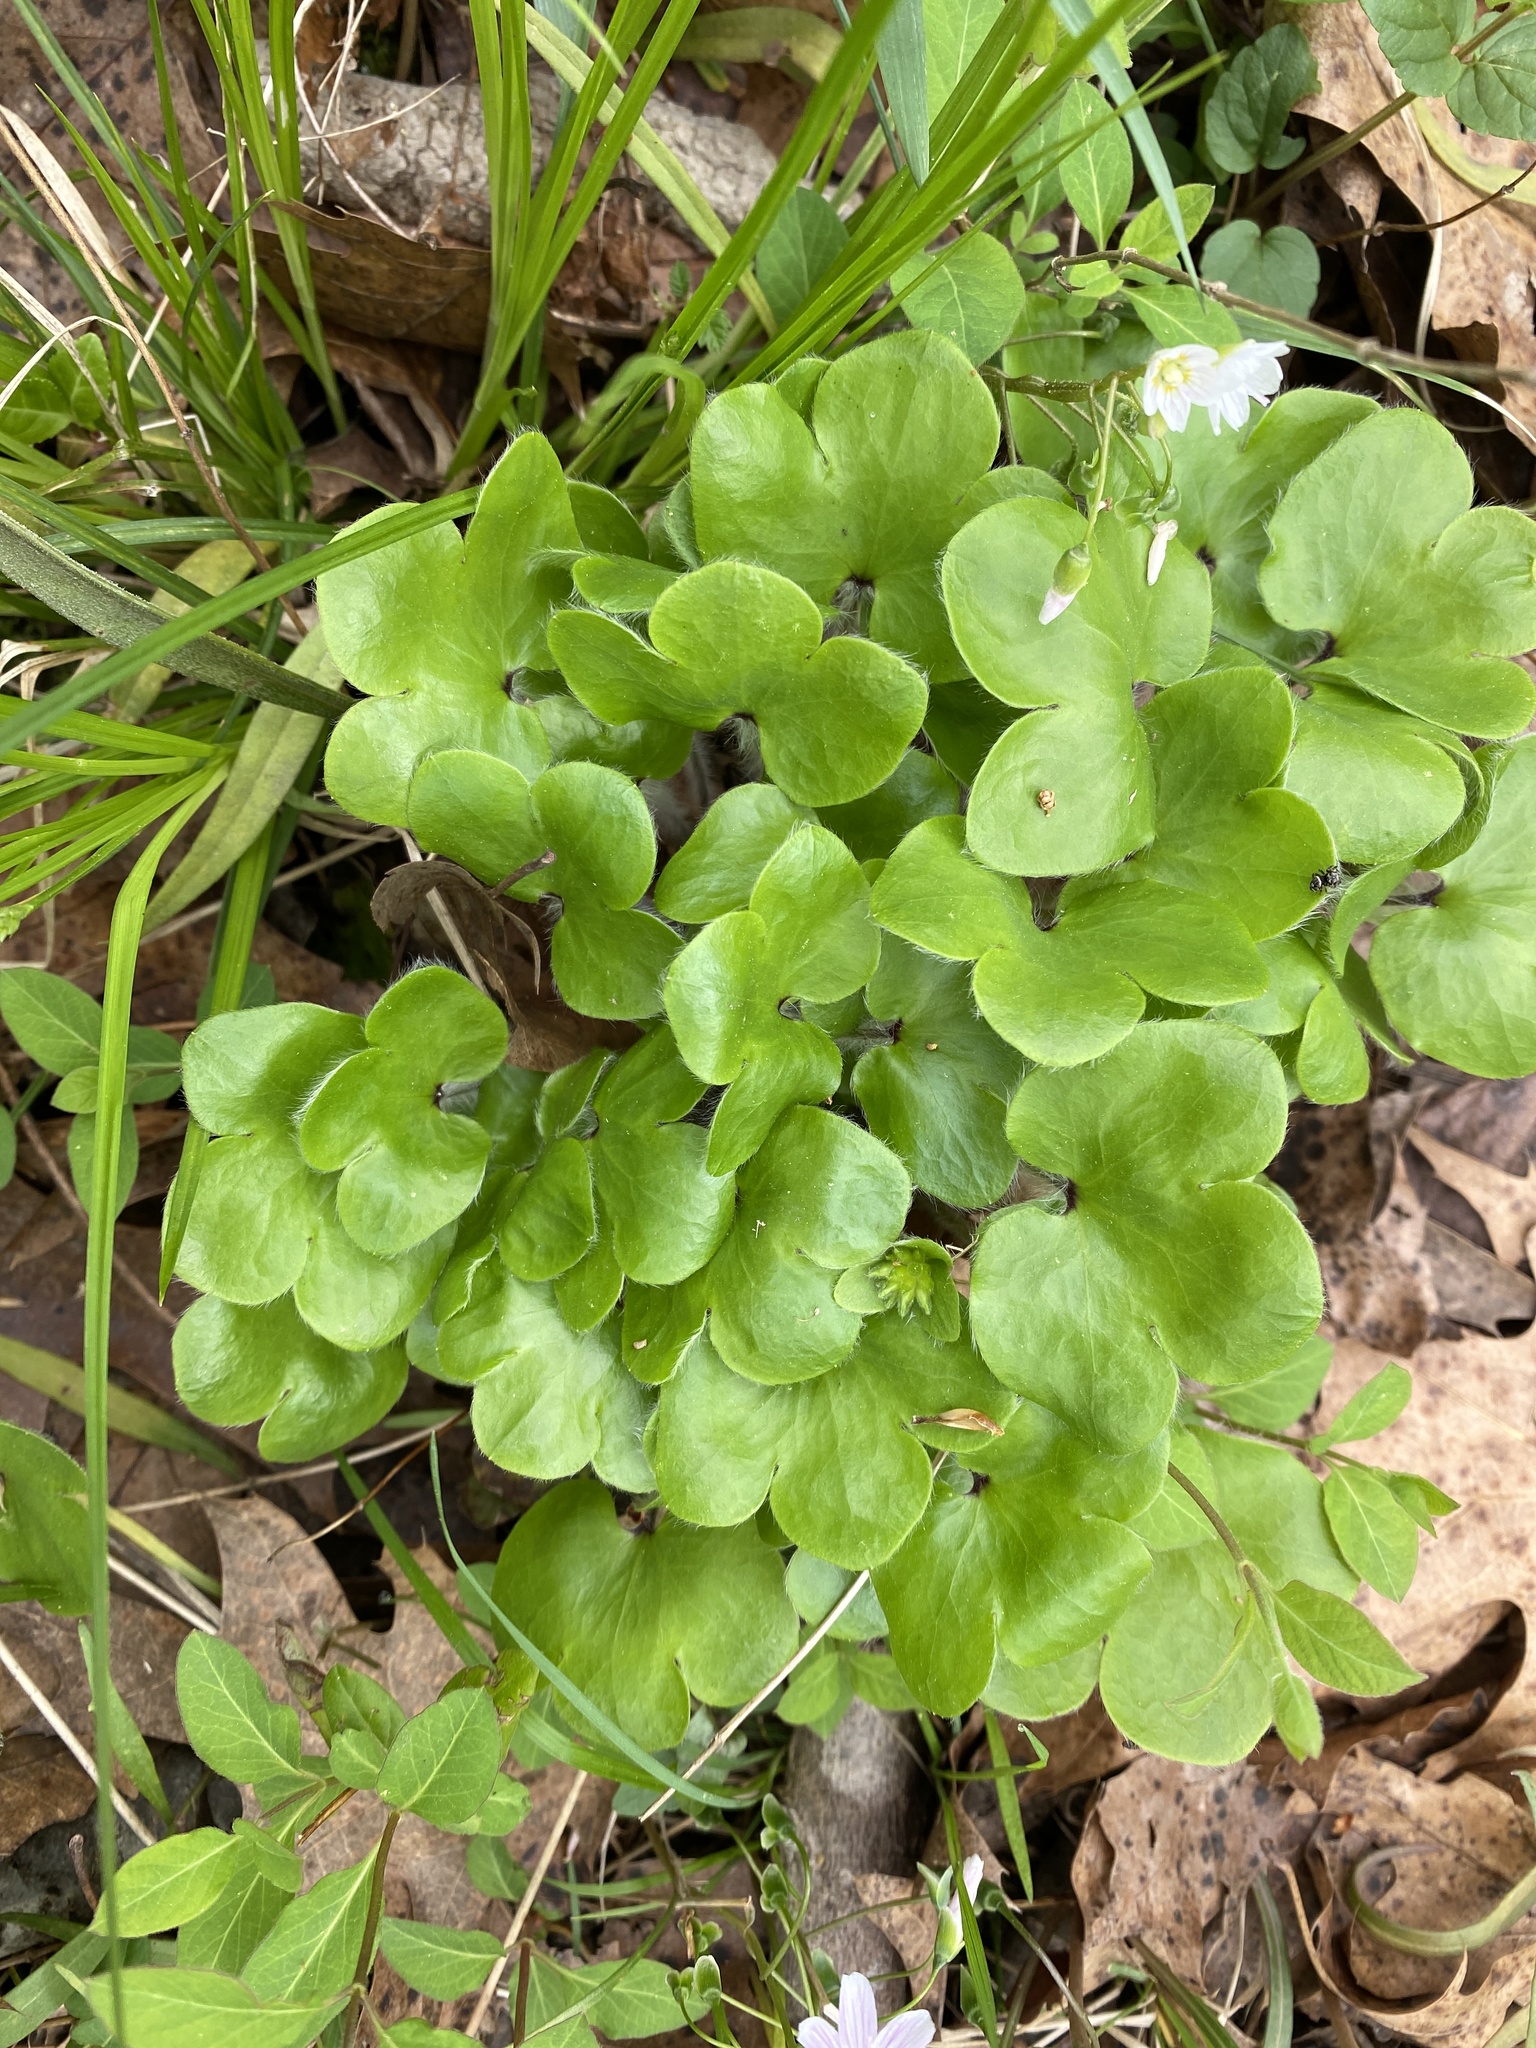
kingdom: Plantae
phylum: Tracheophyta
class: Magnoliopsida
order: Ranunculales
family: Ranunculaceae
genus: Hepatica
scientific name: Hepatica americana
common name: American hepatica
